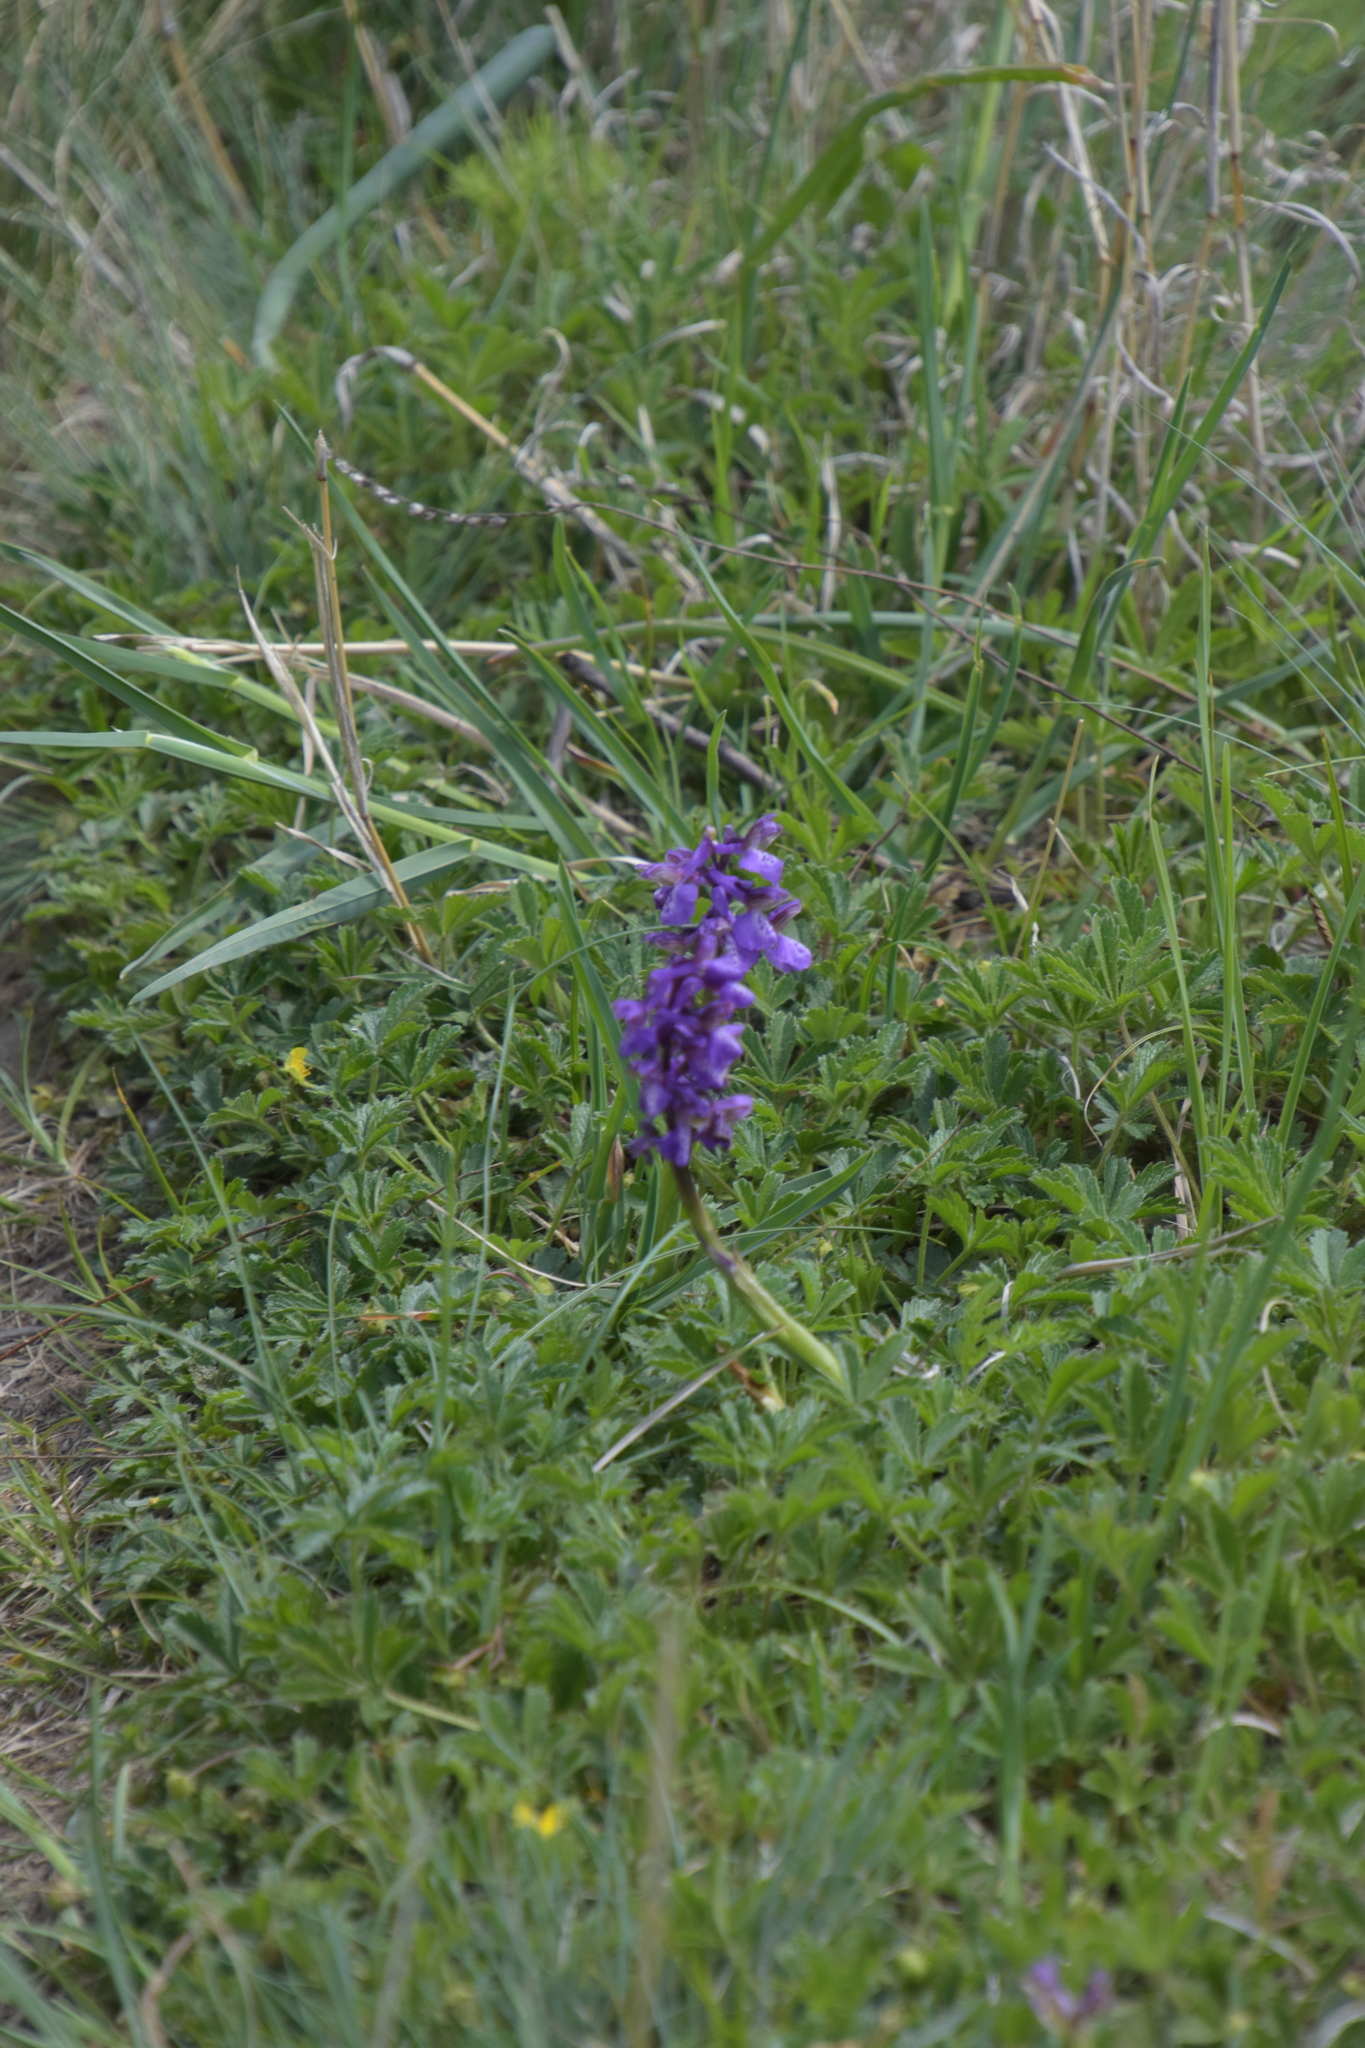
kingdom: Plantae
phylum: Tracheophyta
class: Liliopsida
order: Asparagales
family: Orchidaceae
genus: Anacamptis
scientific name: Anacamptis morio
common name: Green-winged orchid
